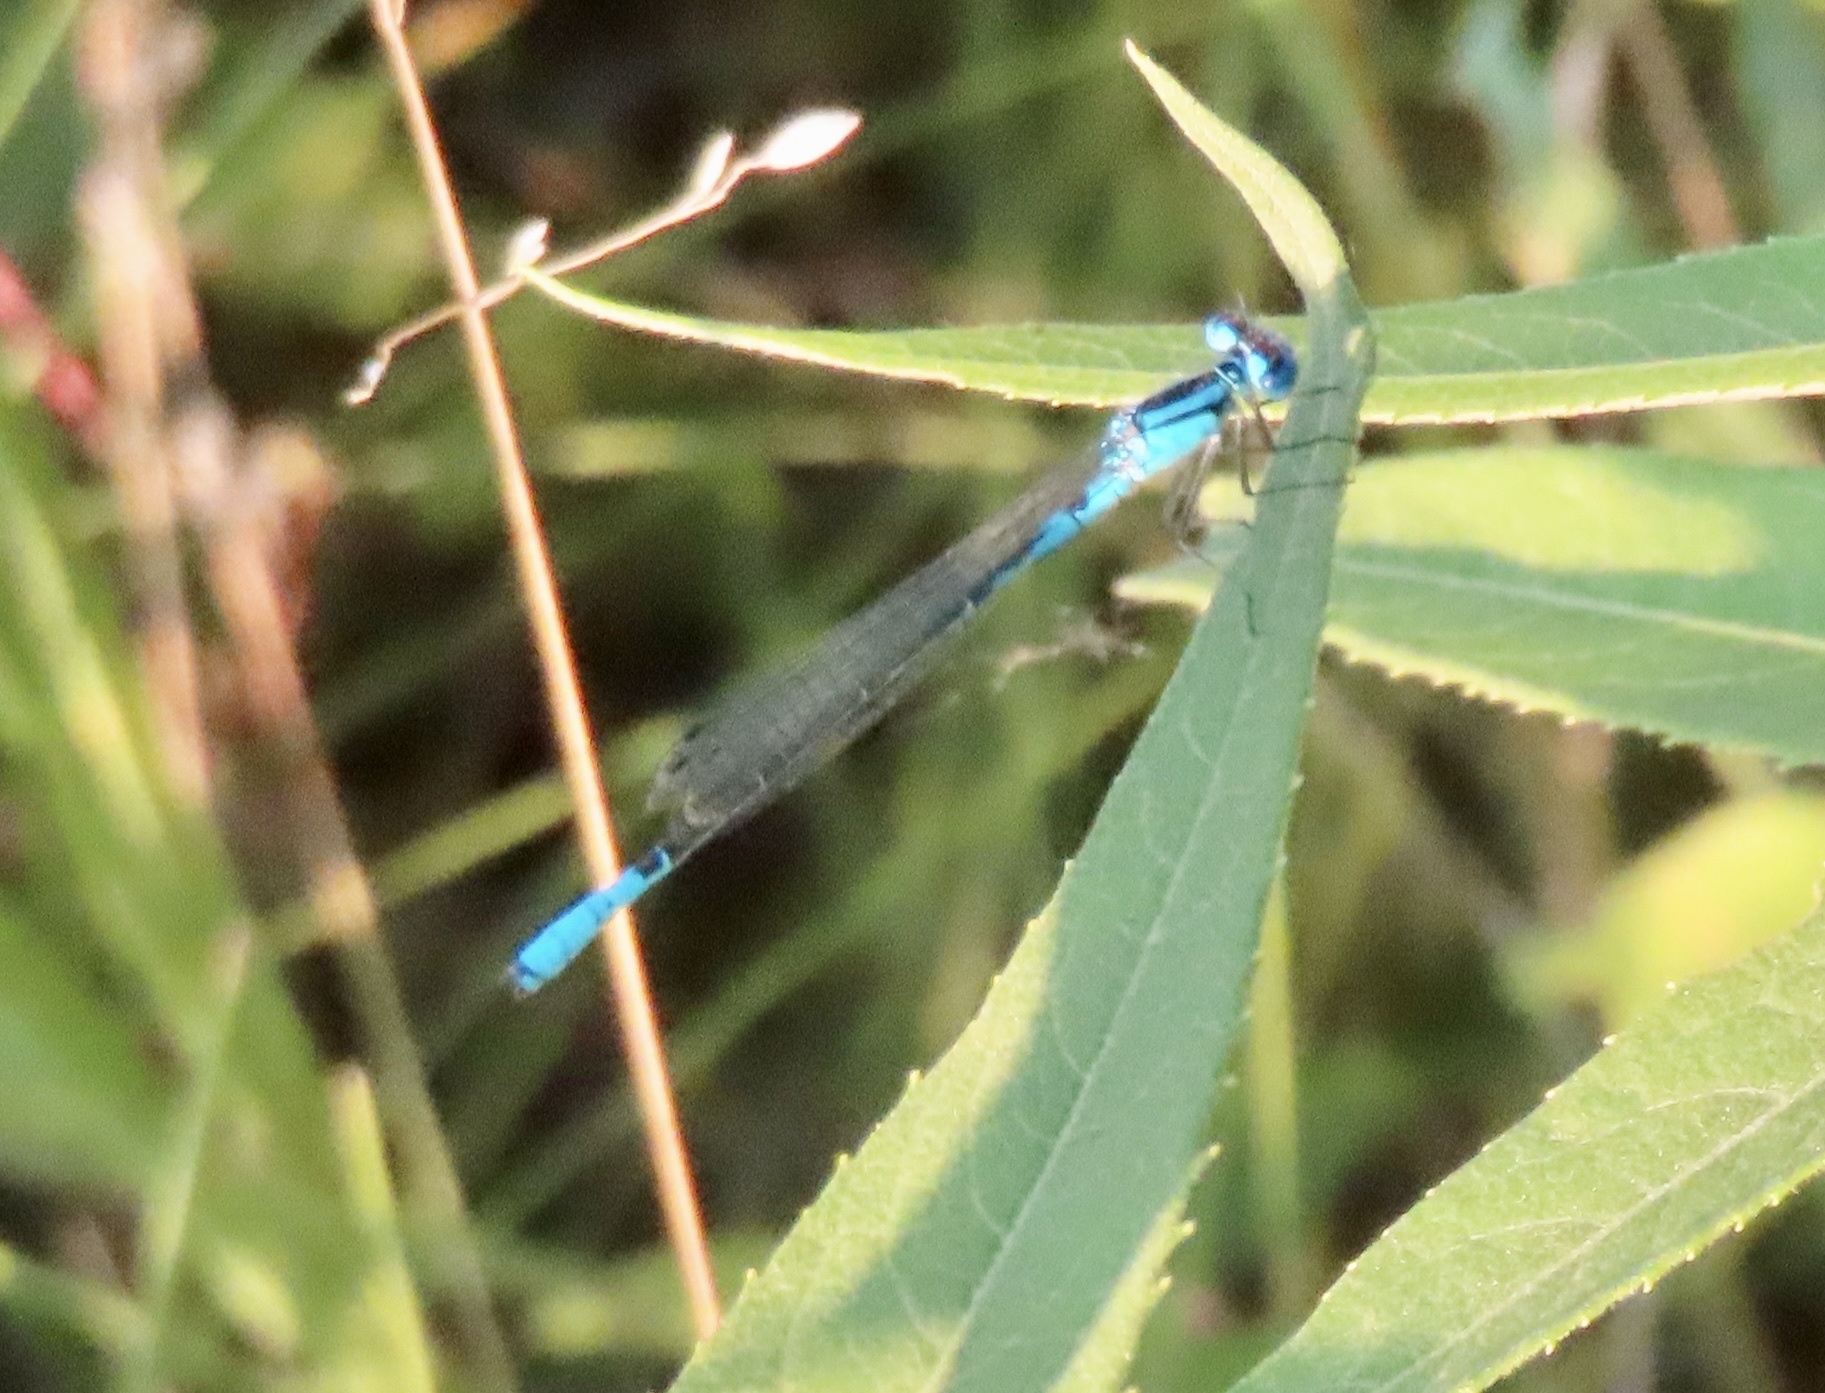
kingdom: Animalia
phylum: Arthropoda
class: Insecta
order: Odonata
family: Coenagrionidae
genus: Enallagma
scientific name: Enallagma aspersum
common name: Azure bluet
